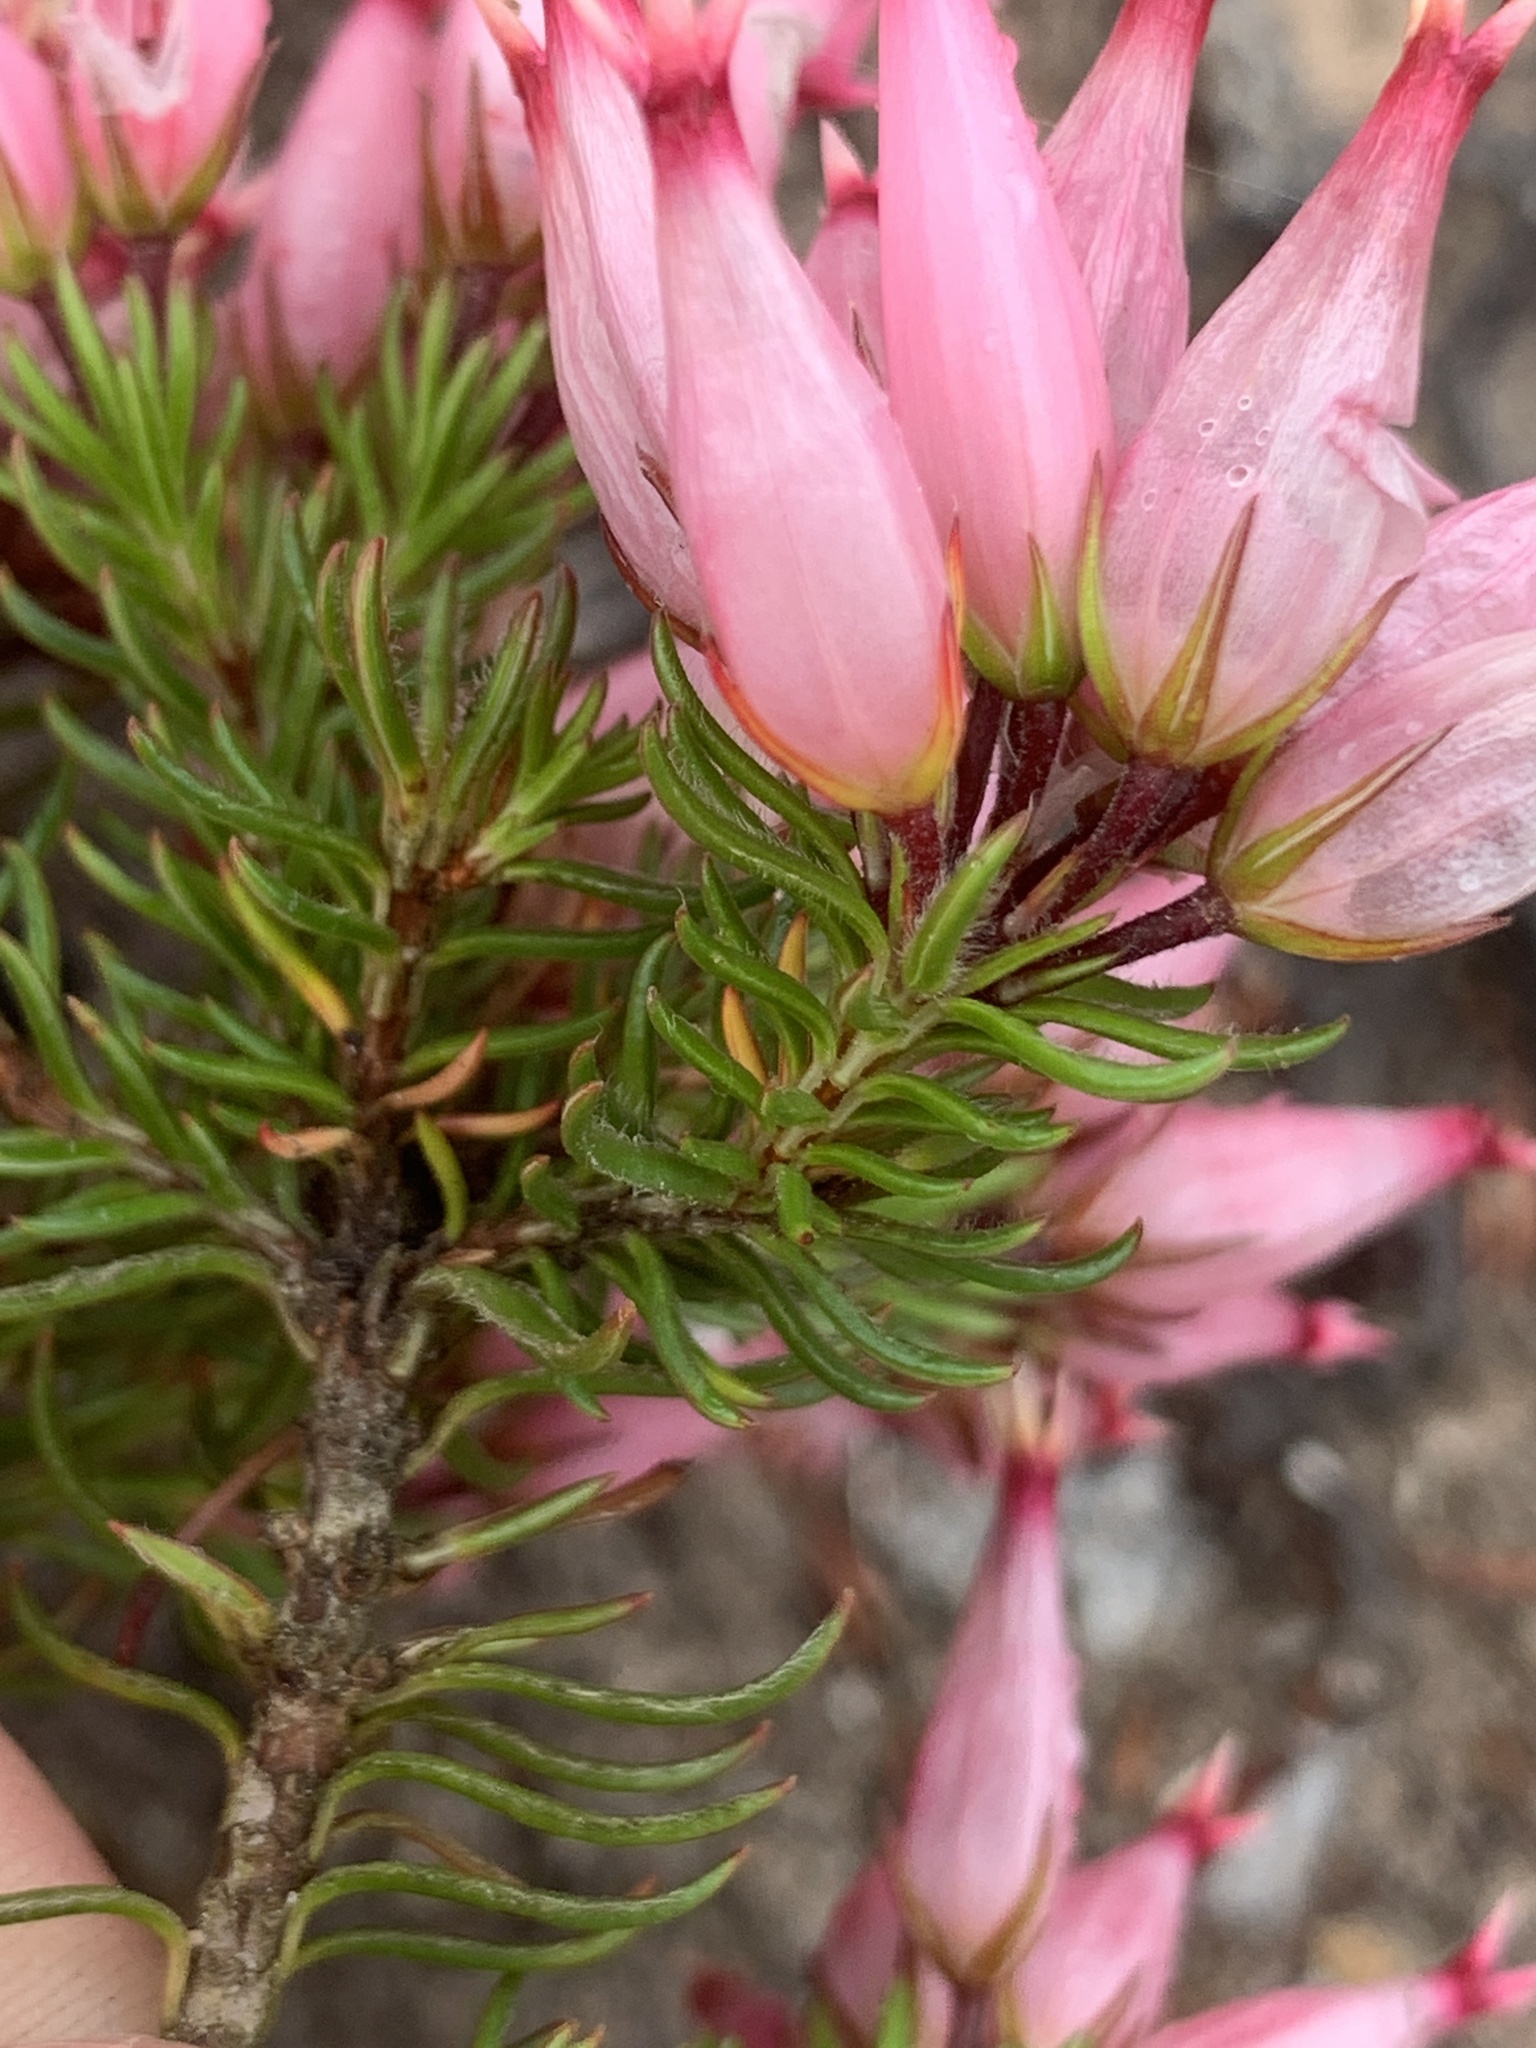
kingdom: Plantae
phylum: Tracheophyta
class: Magnoliopsida
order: Ericales
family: Ericaceae
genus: Erica
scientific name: Erica ventricosa
